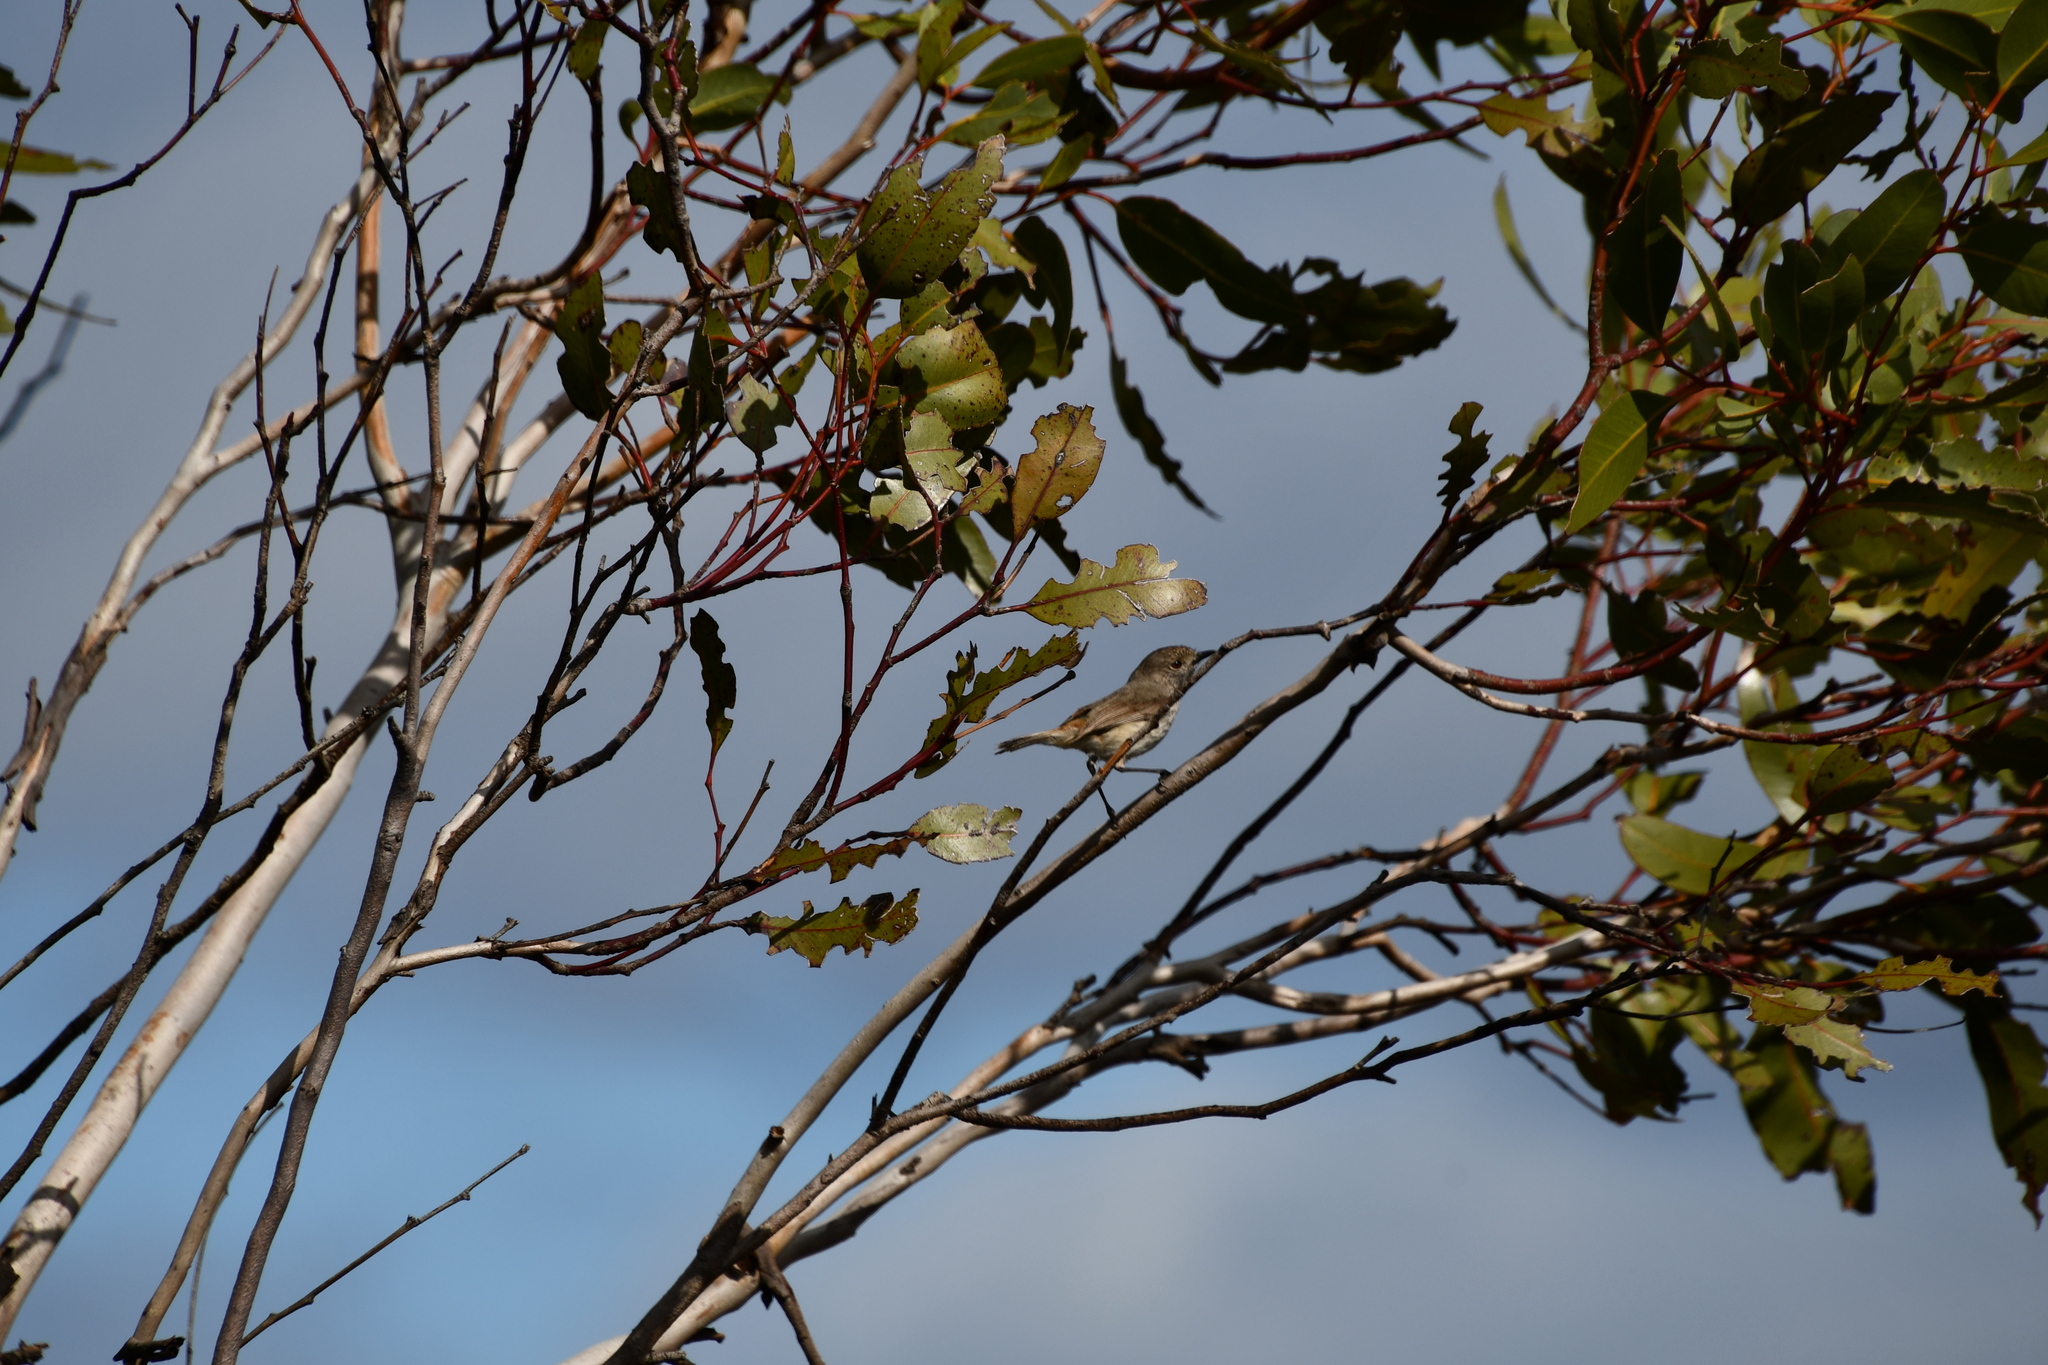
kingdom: Animalia
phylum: Chordata
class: Aves
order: Passeriformes
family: Acanthizidae
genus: Acanthiza
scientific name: Acanthiza apicalis
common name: Inland thornbill
